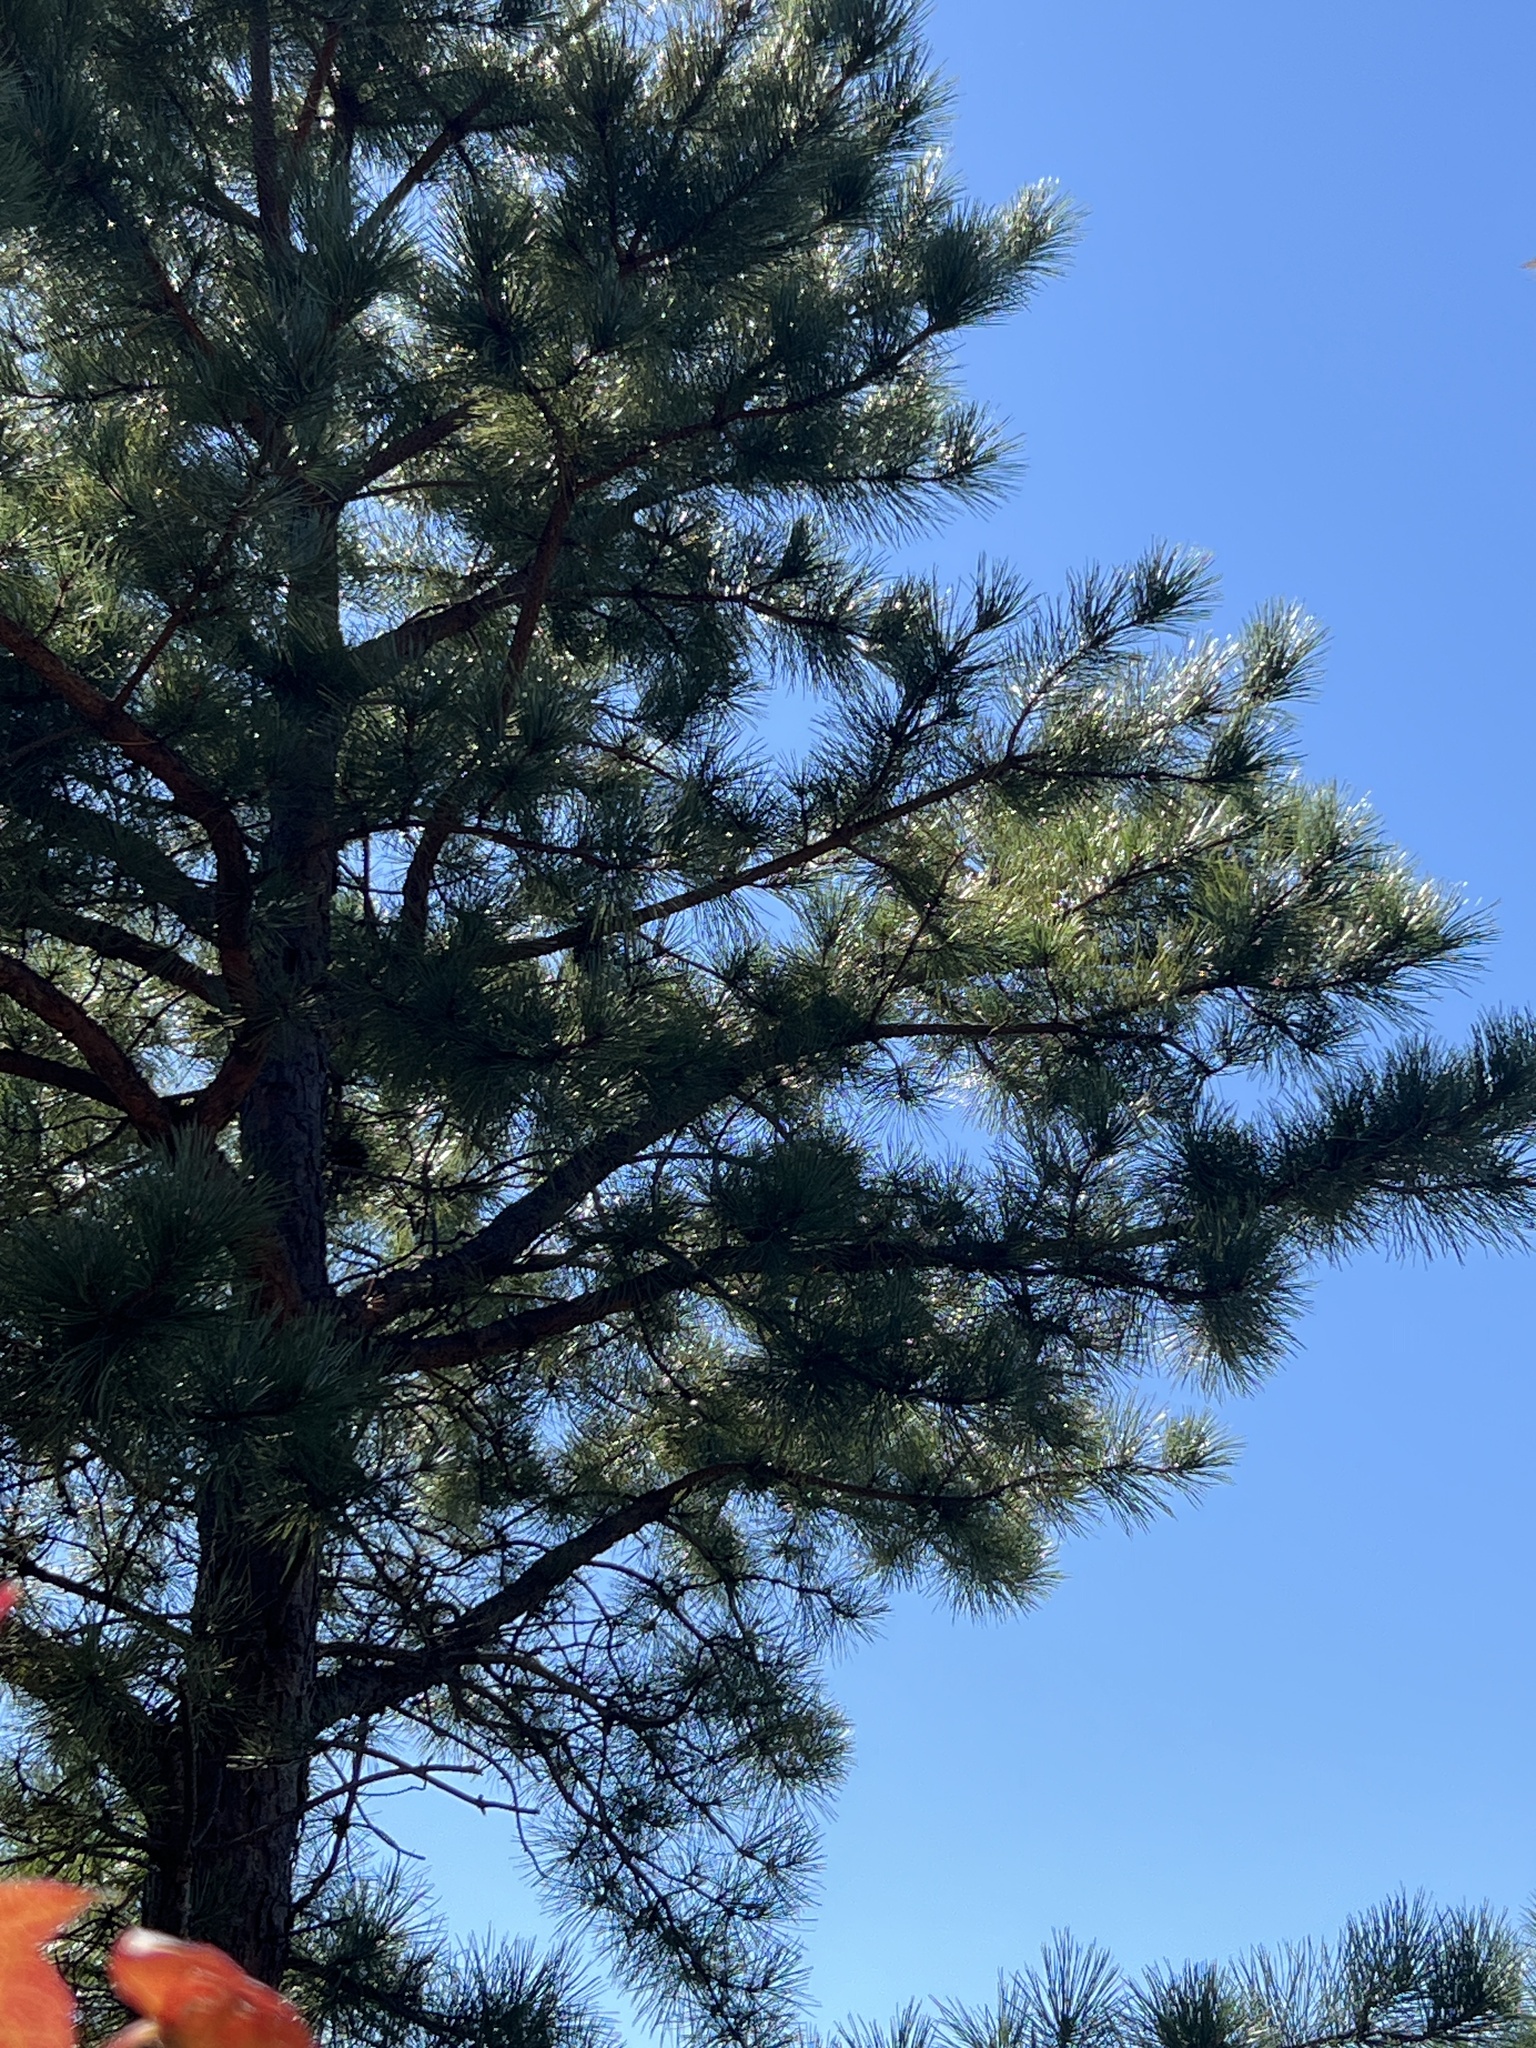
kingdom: Plantae
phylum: Tracheophyta
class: Pinopsida
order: Pinales
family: Pinaceae
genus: Pinus
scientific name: Pinus rigida
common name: Pitch pine
